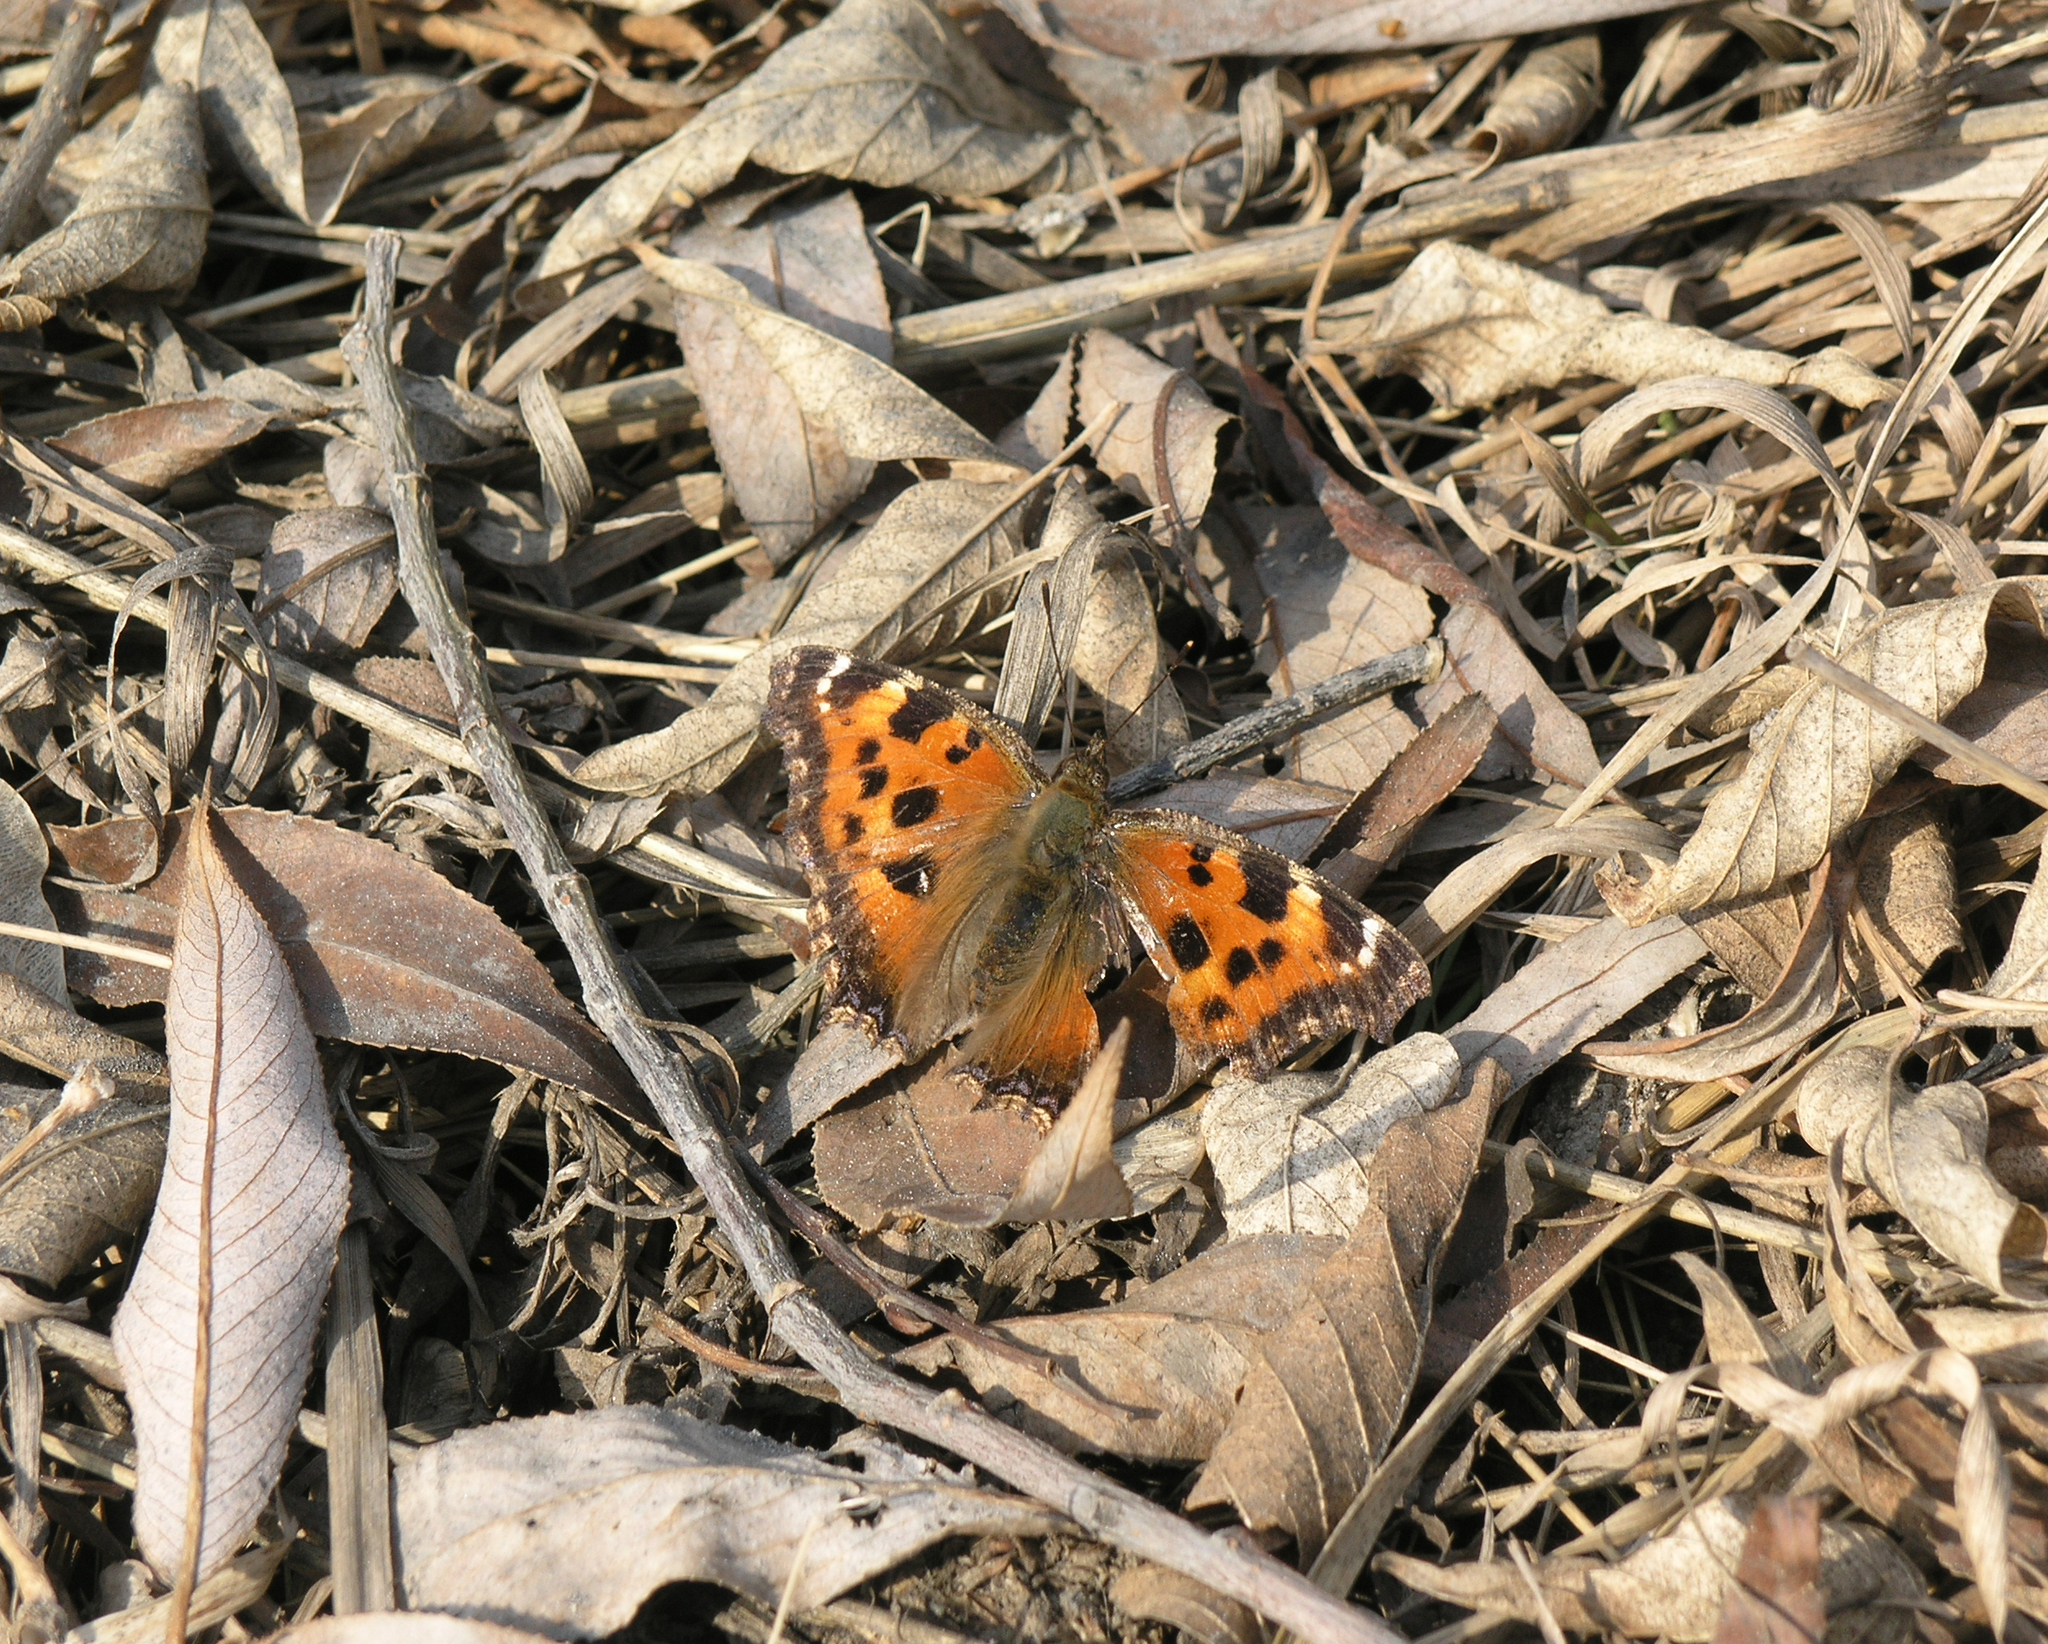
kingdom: Animalia
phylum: Arthropoda
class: Insecta
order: Lepidoptera
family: Nymphalidae
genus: Nymphalis
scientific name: Nymphalis xanthomelas
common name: Scarce tortoiseshell
